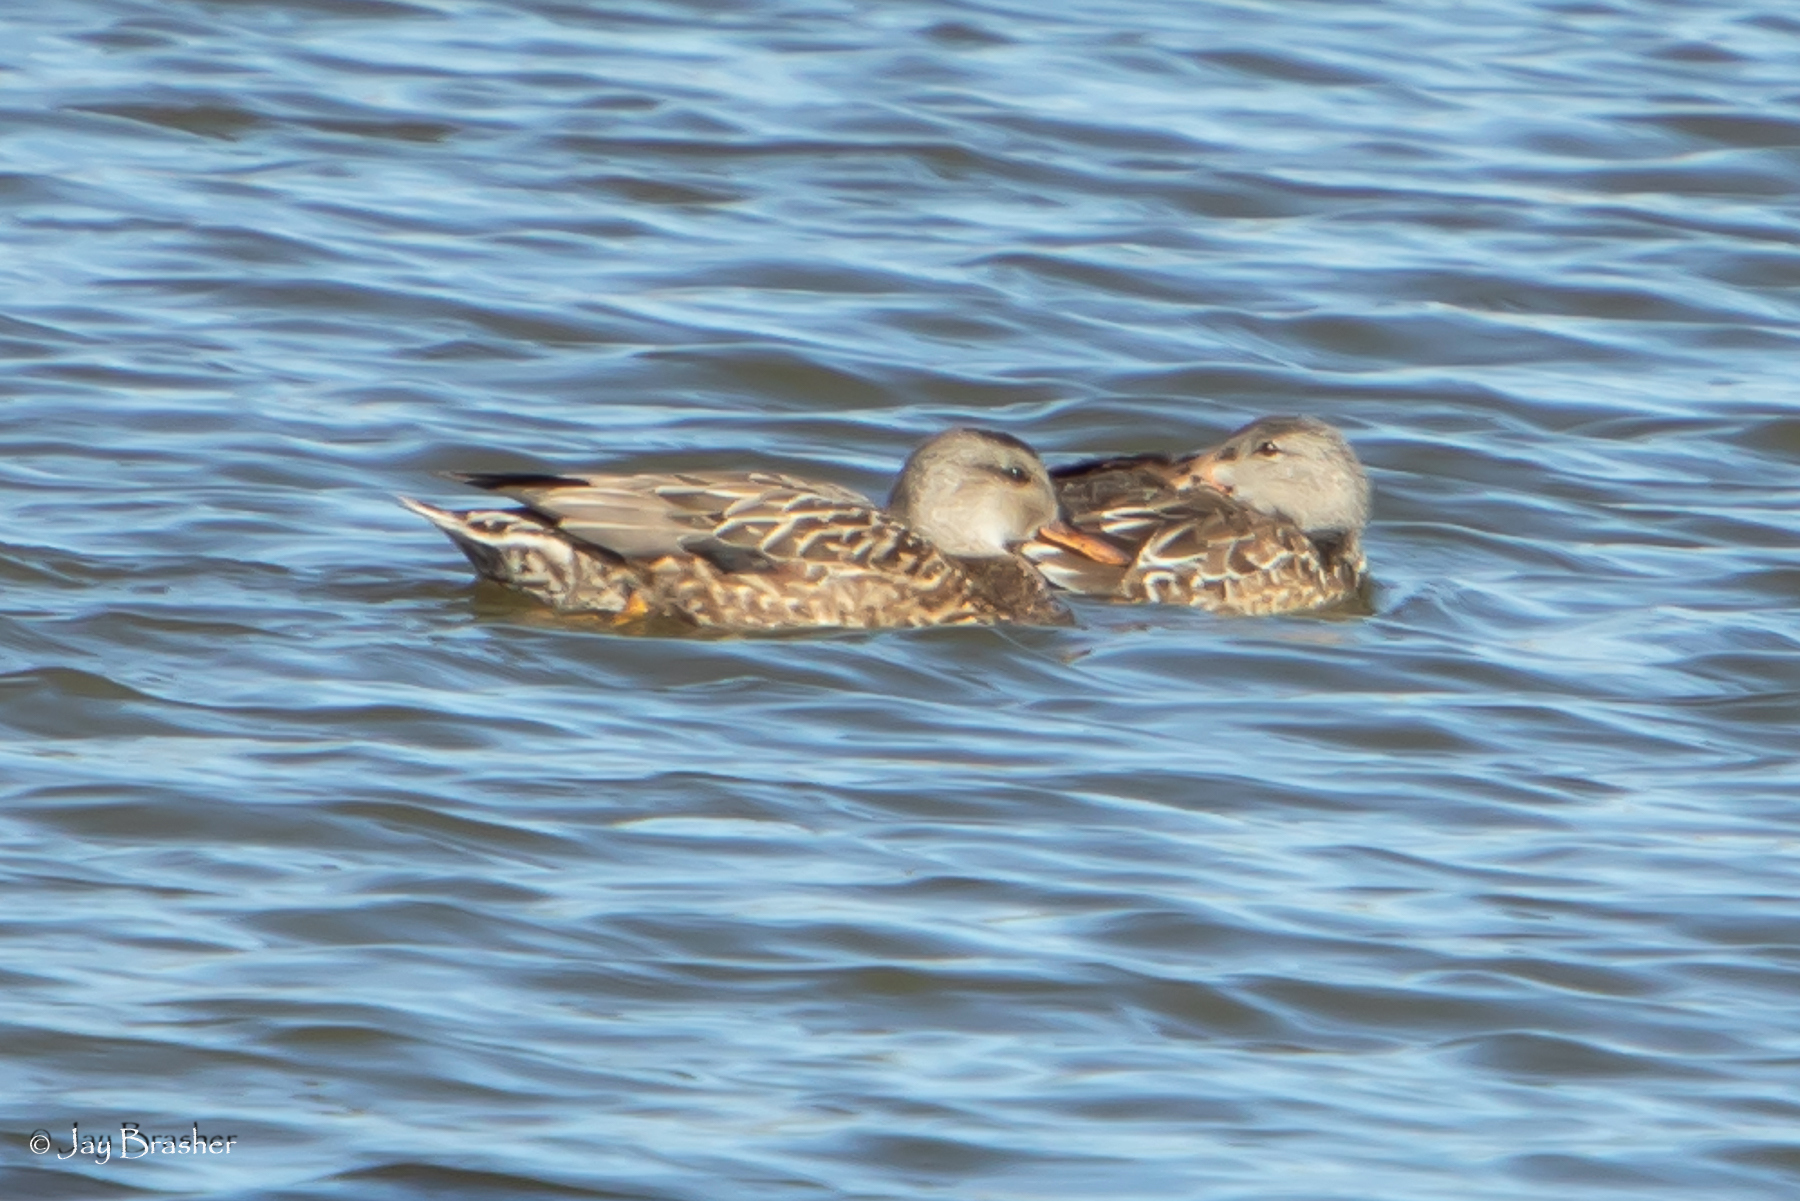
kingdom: Animalia
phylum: Chordata
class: Aves
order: Anseriformes
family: Anatidae
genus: Mareca
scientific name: Mareca strepera
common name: Gadwall
